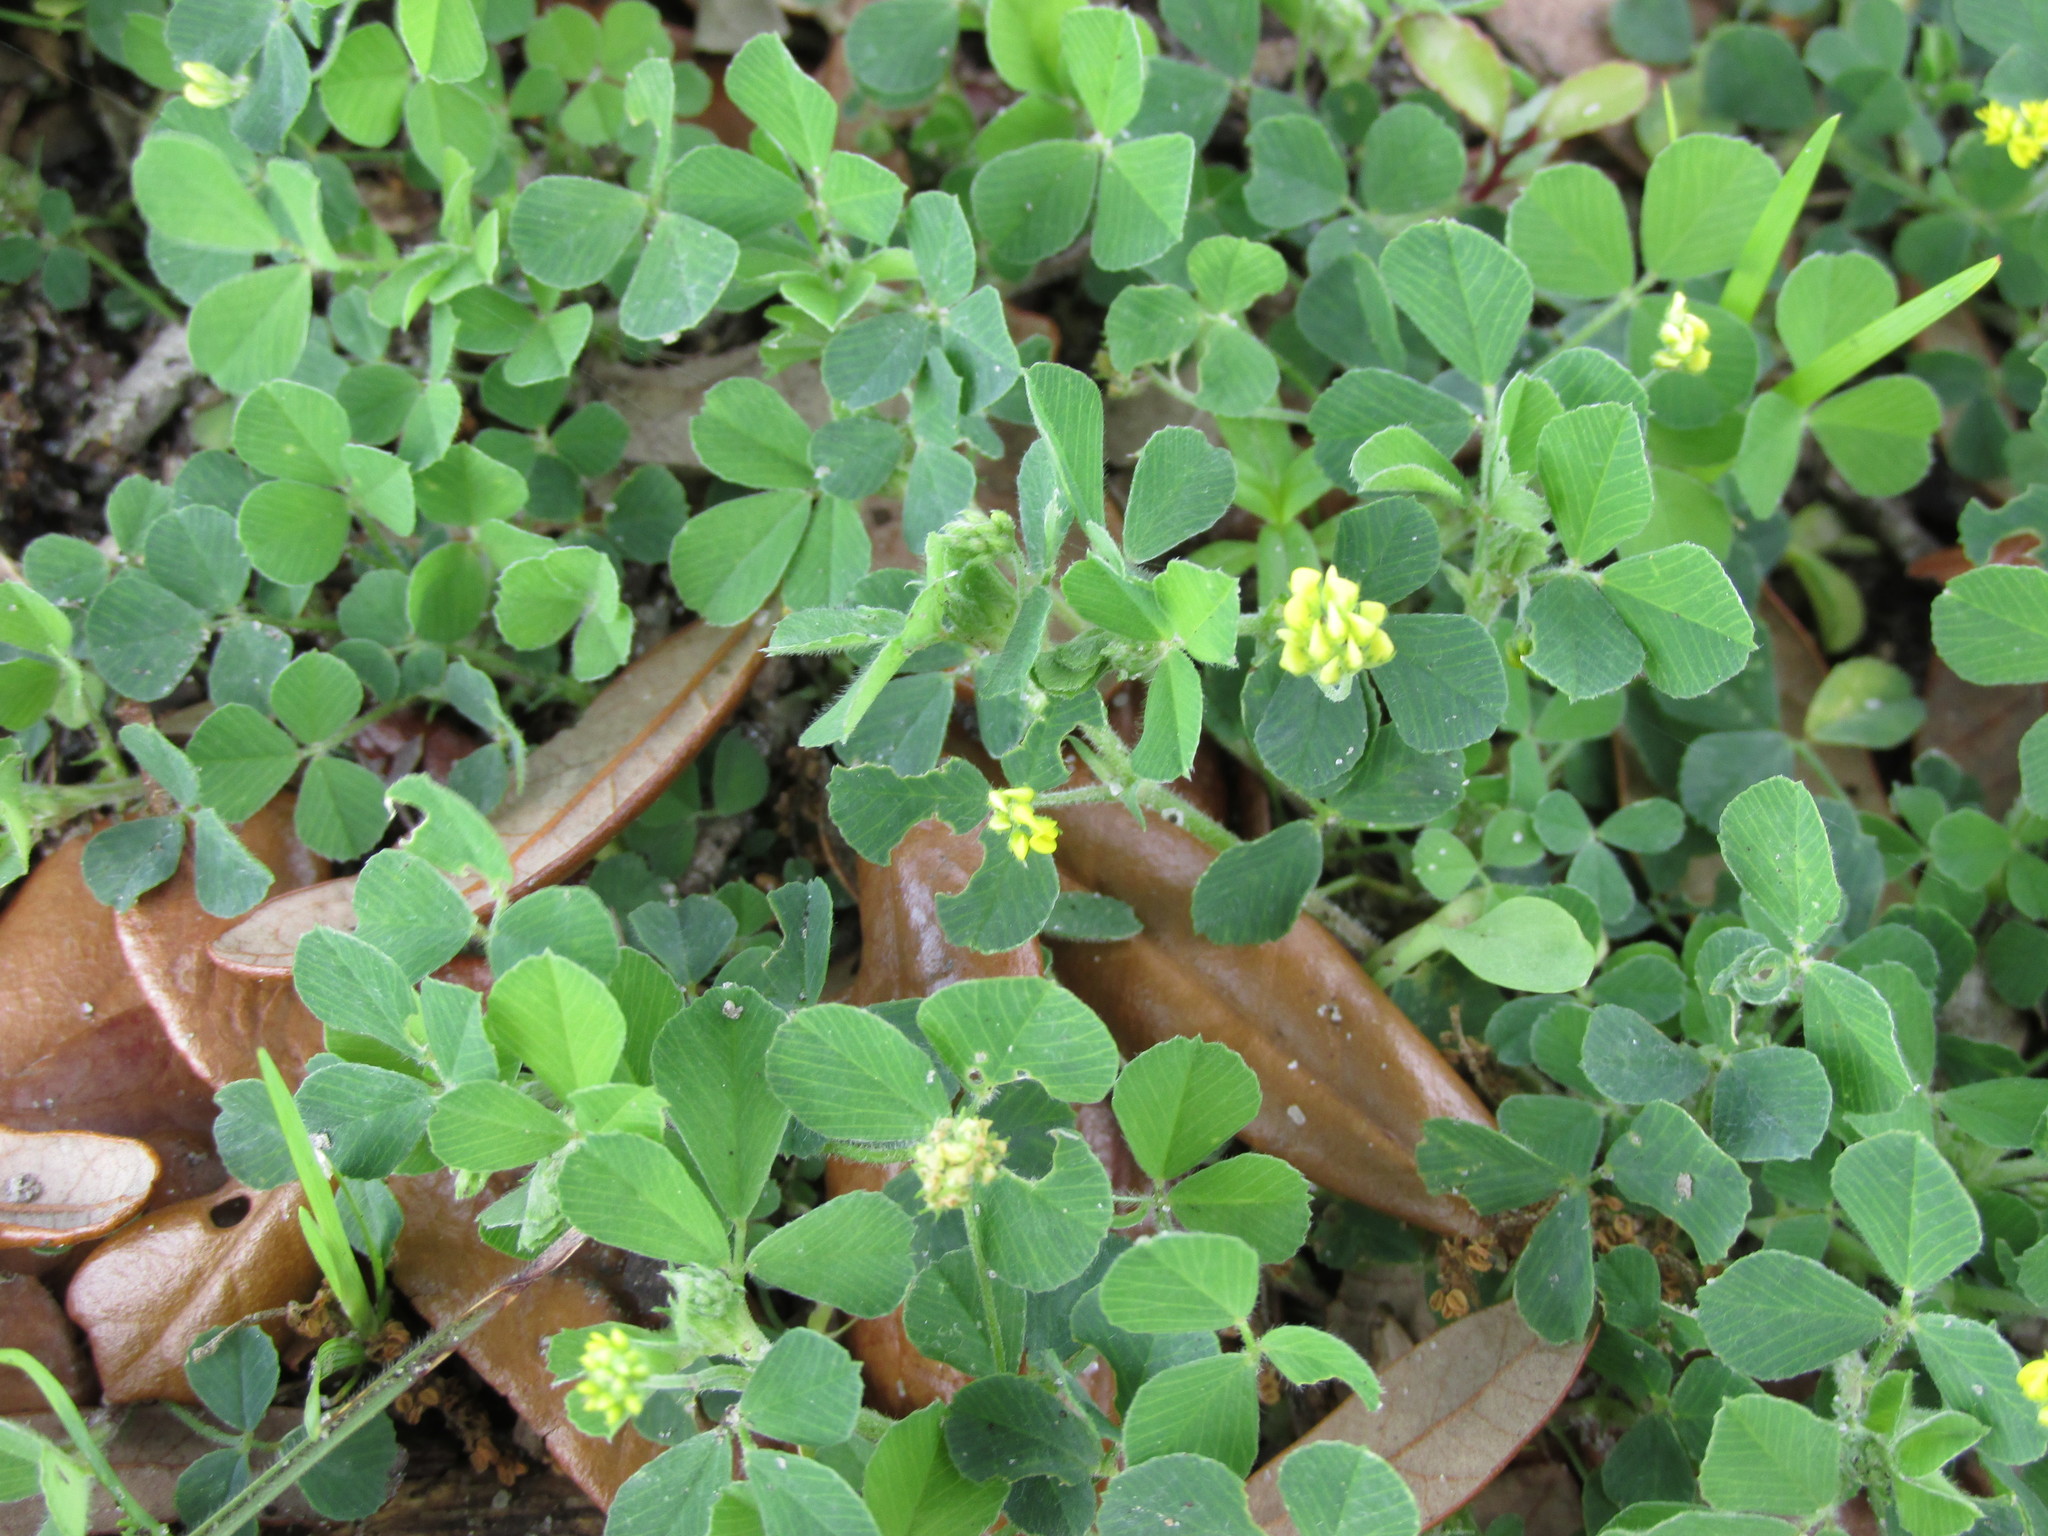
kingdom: Plantae
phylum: Tracheophyta
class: Magnoliopsida
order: Fabales
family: Fabaceae
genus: Medicago
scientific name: Medicago lupulina
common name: Black medick
